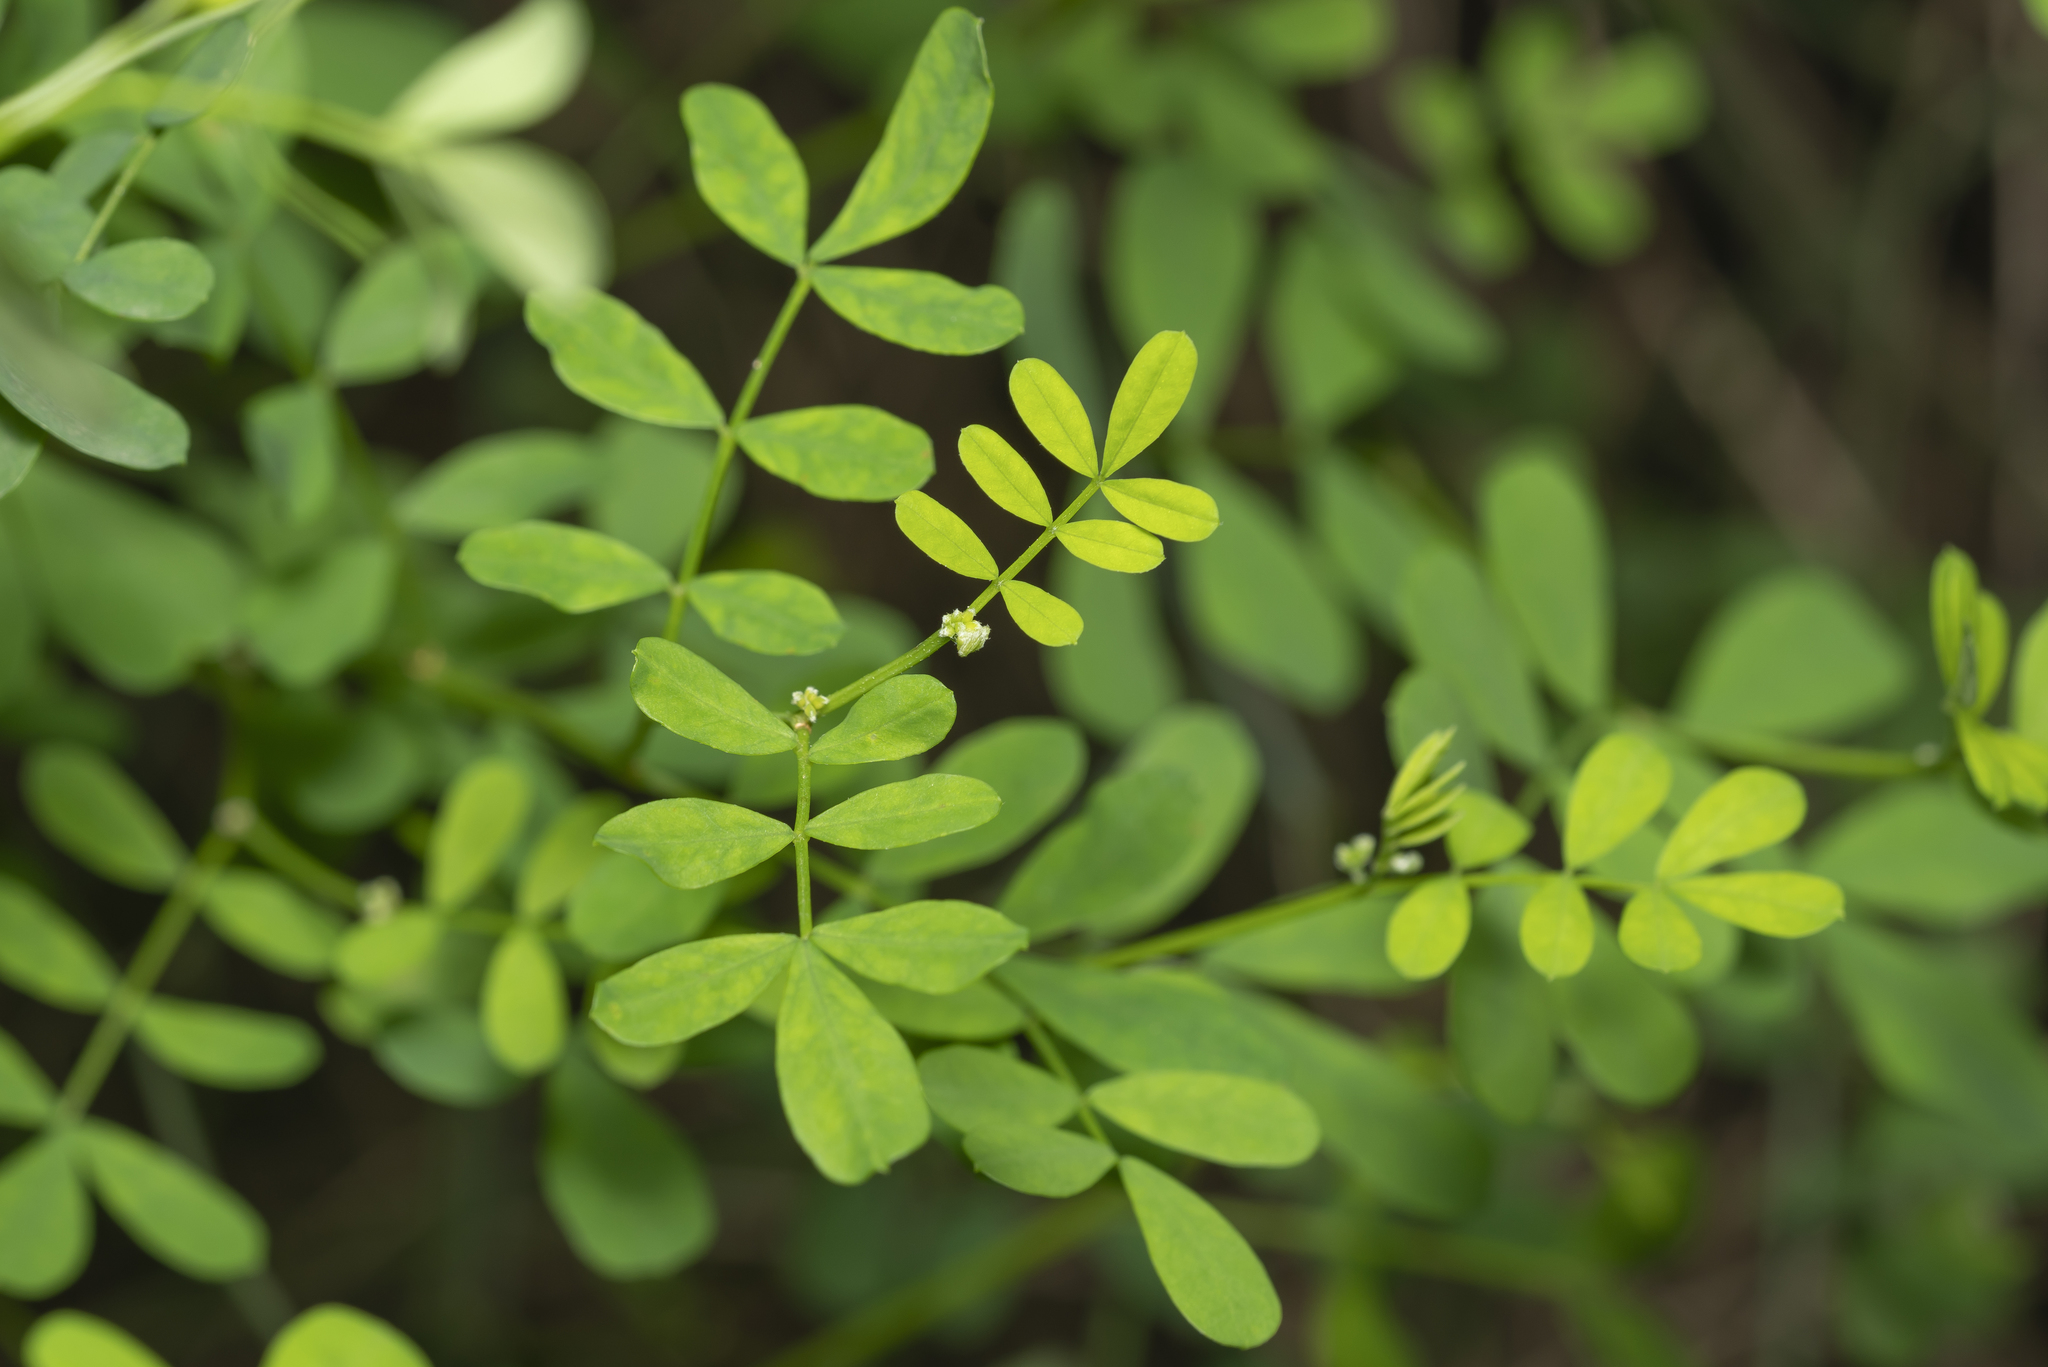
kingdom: Plantae
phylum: Tracheophyta
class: Magnoliopsida
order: Fabales
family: Fabaceae
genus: Hippocrepis
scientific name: Hippocrepis emerus
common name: Scorpion senna
